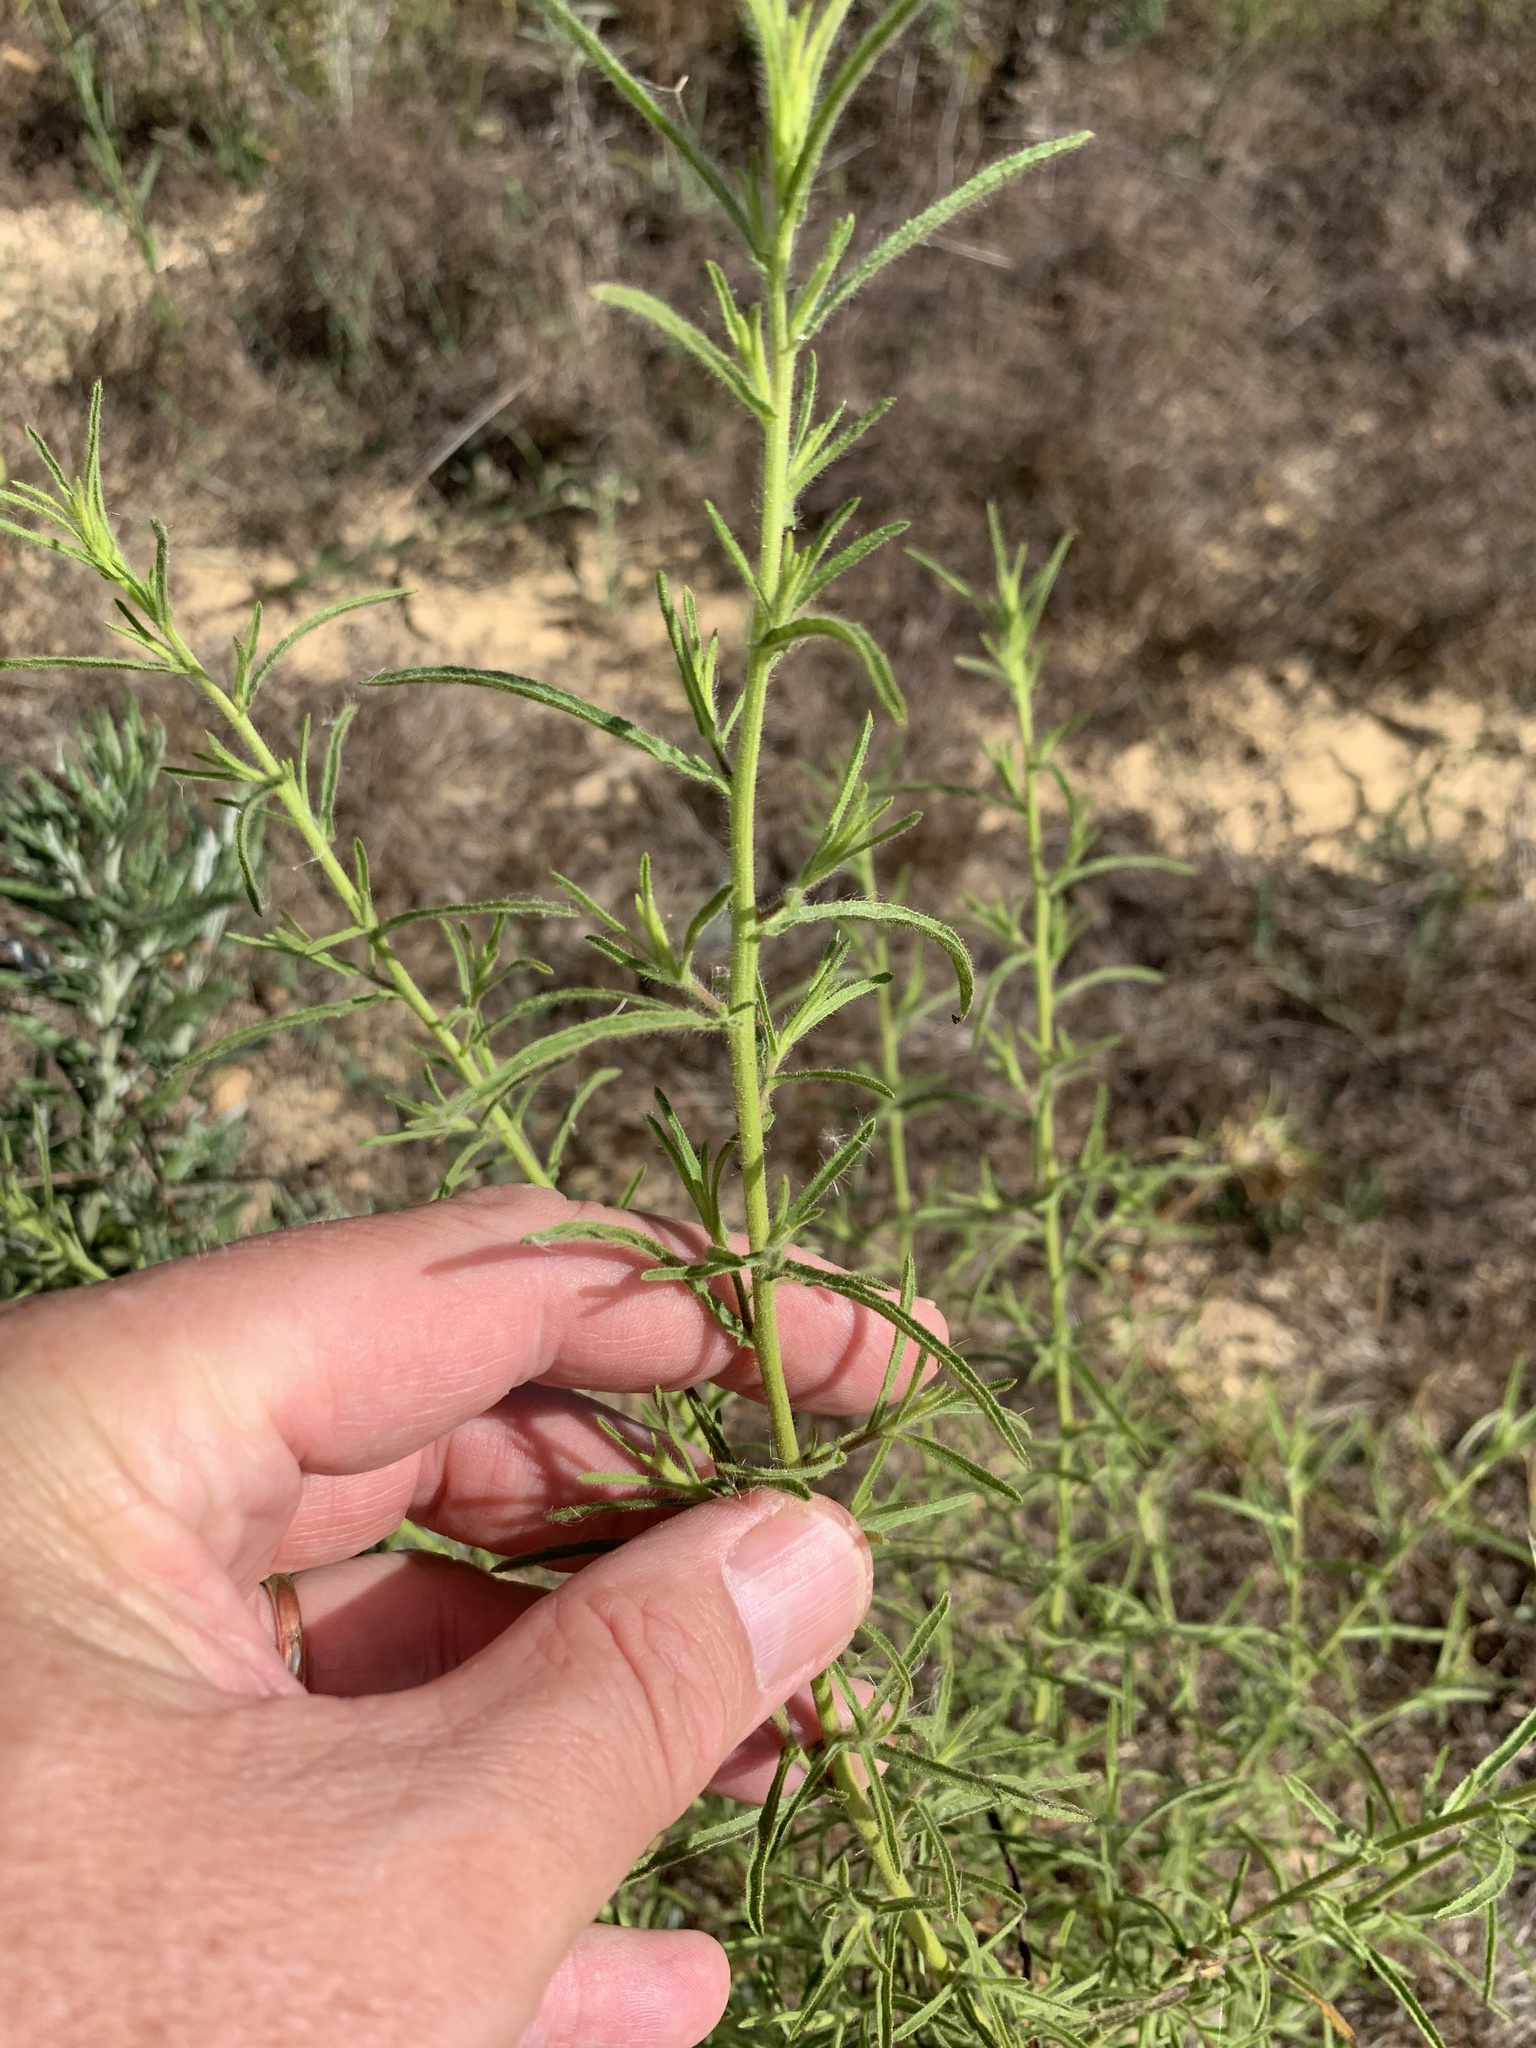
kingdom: Plantae
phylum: Tracheophyta
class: Magnoliopsida
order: Asterales
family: Asteraceae
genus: Dittrichia
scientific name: Dittrichia graveolens
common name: Stinking fleabane
